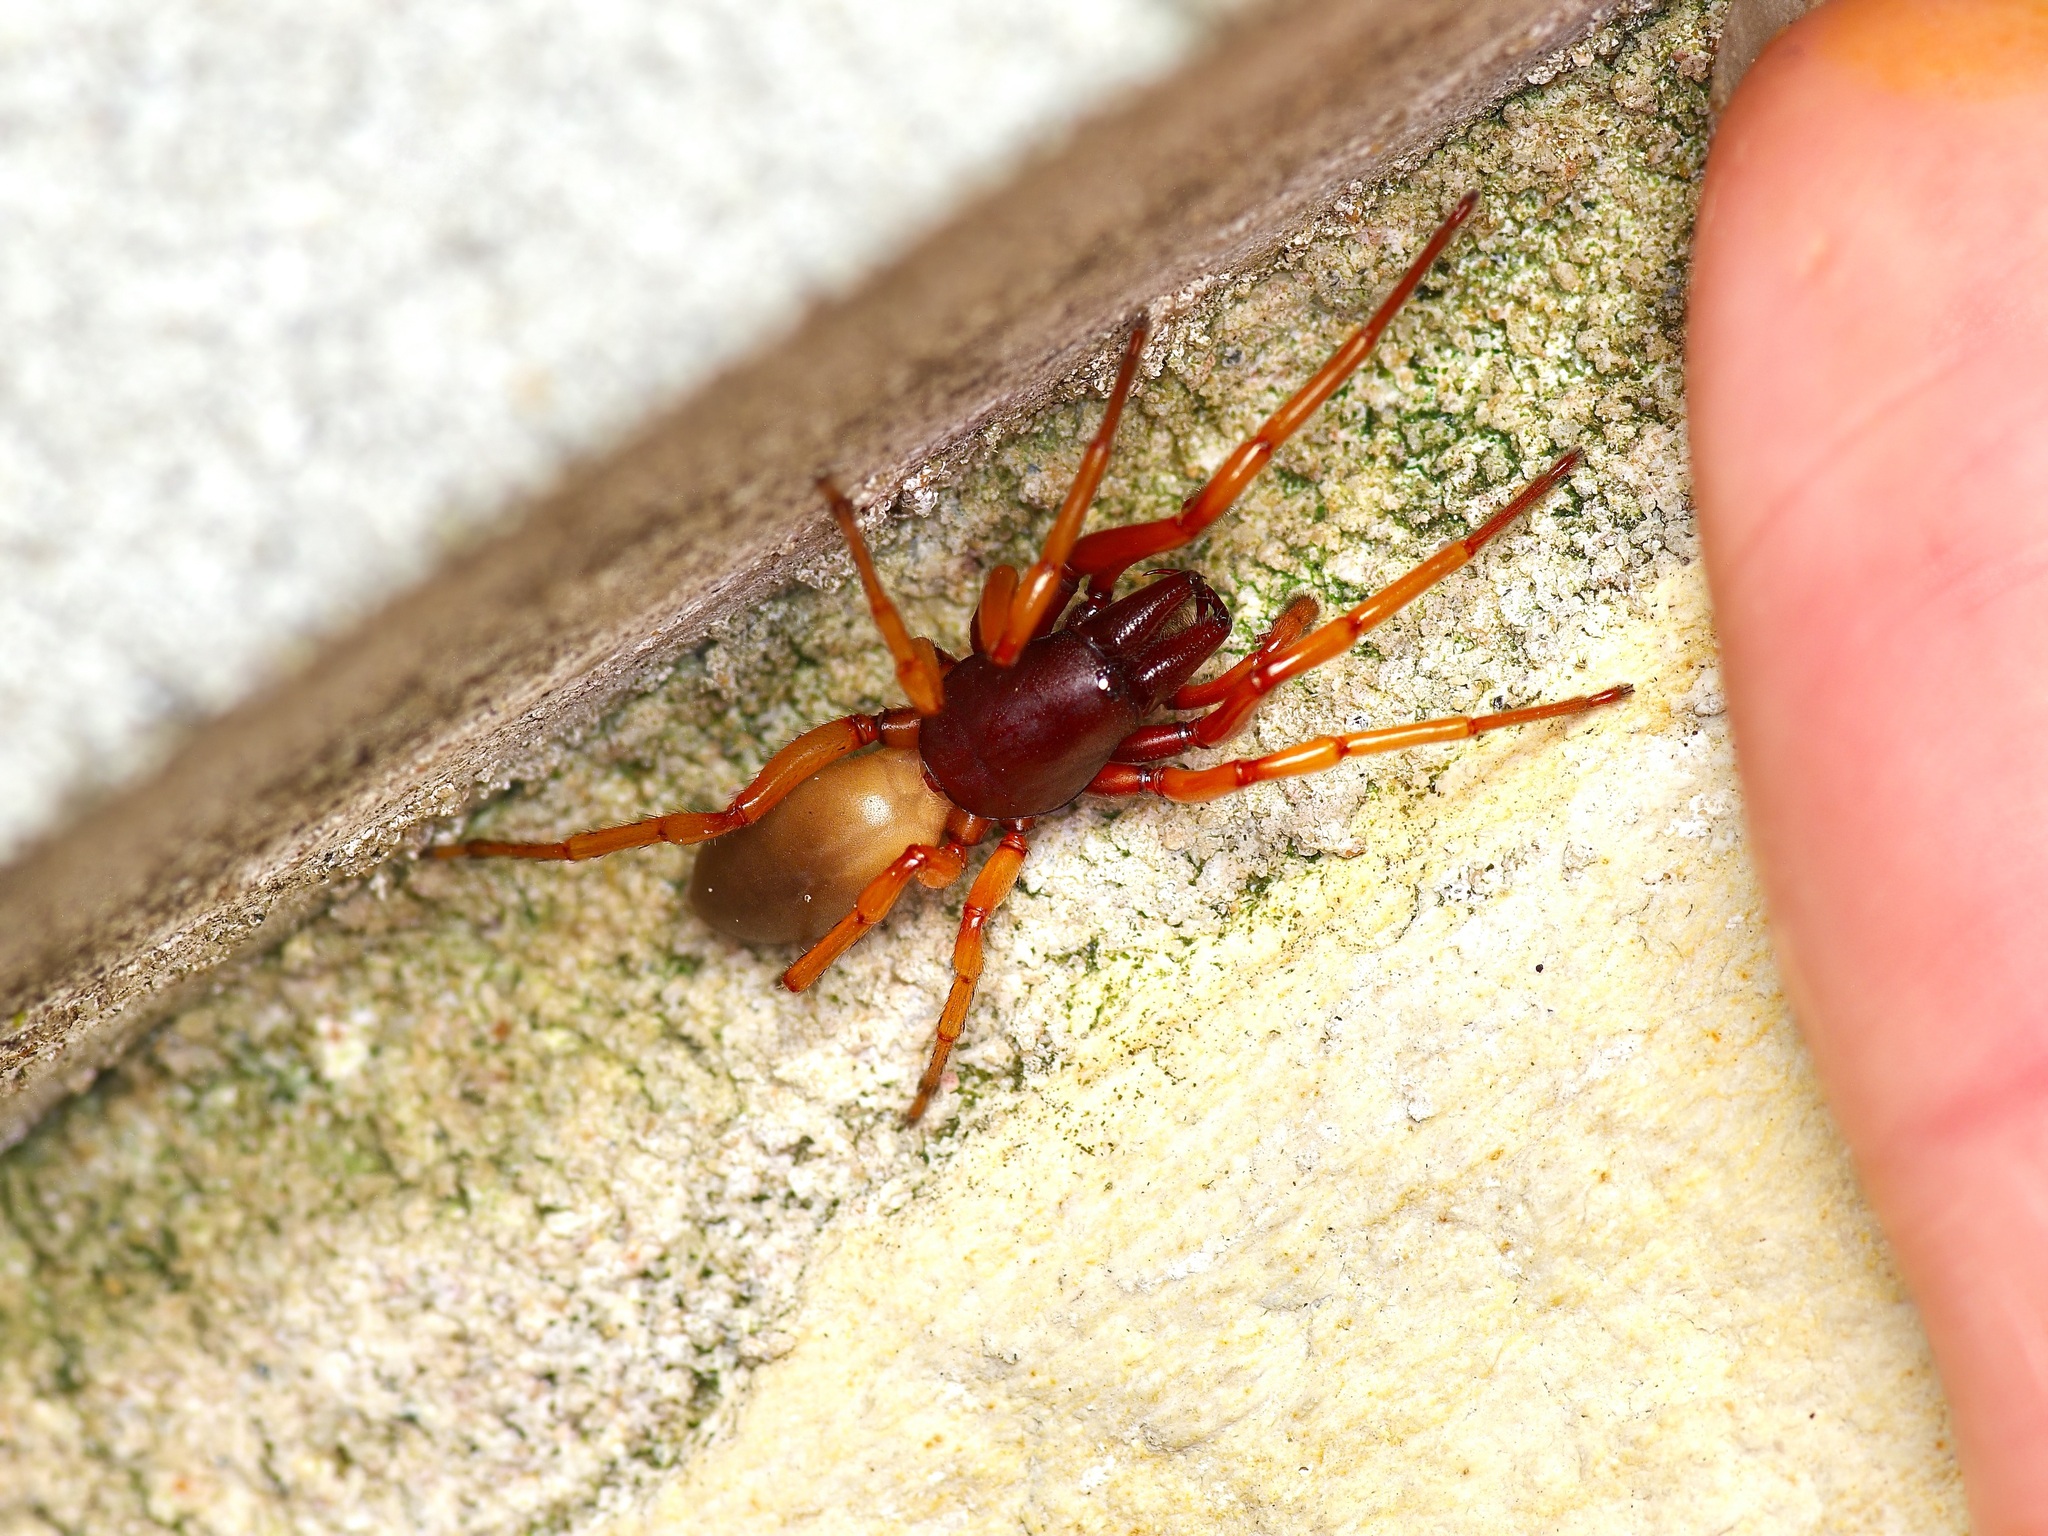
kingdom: Animalia
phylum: Arthropoda
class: Arachnida
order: Araneae
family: Dysderidae
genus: Dysdera
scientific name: Dysdera crocata
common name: Woodlouse spider
